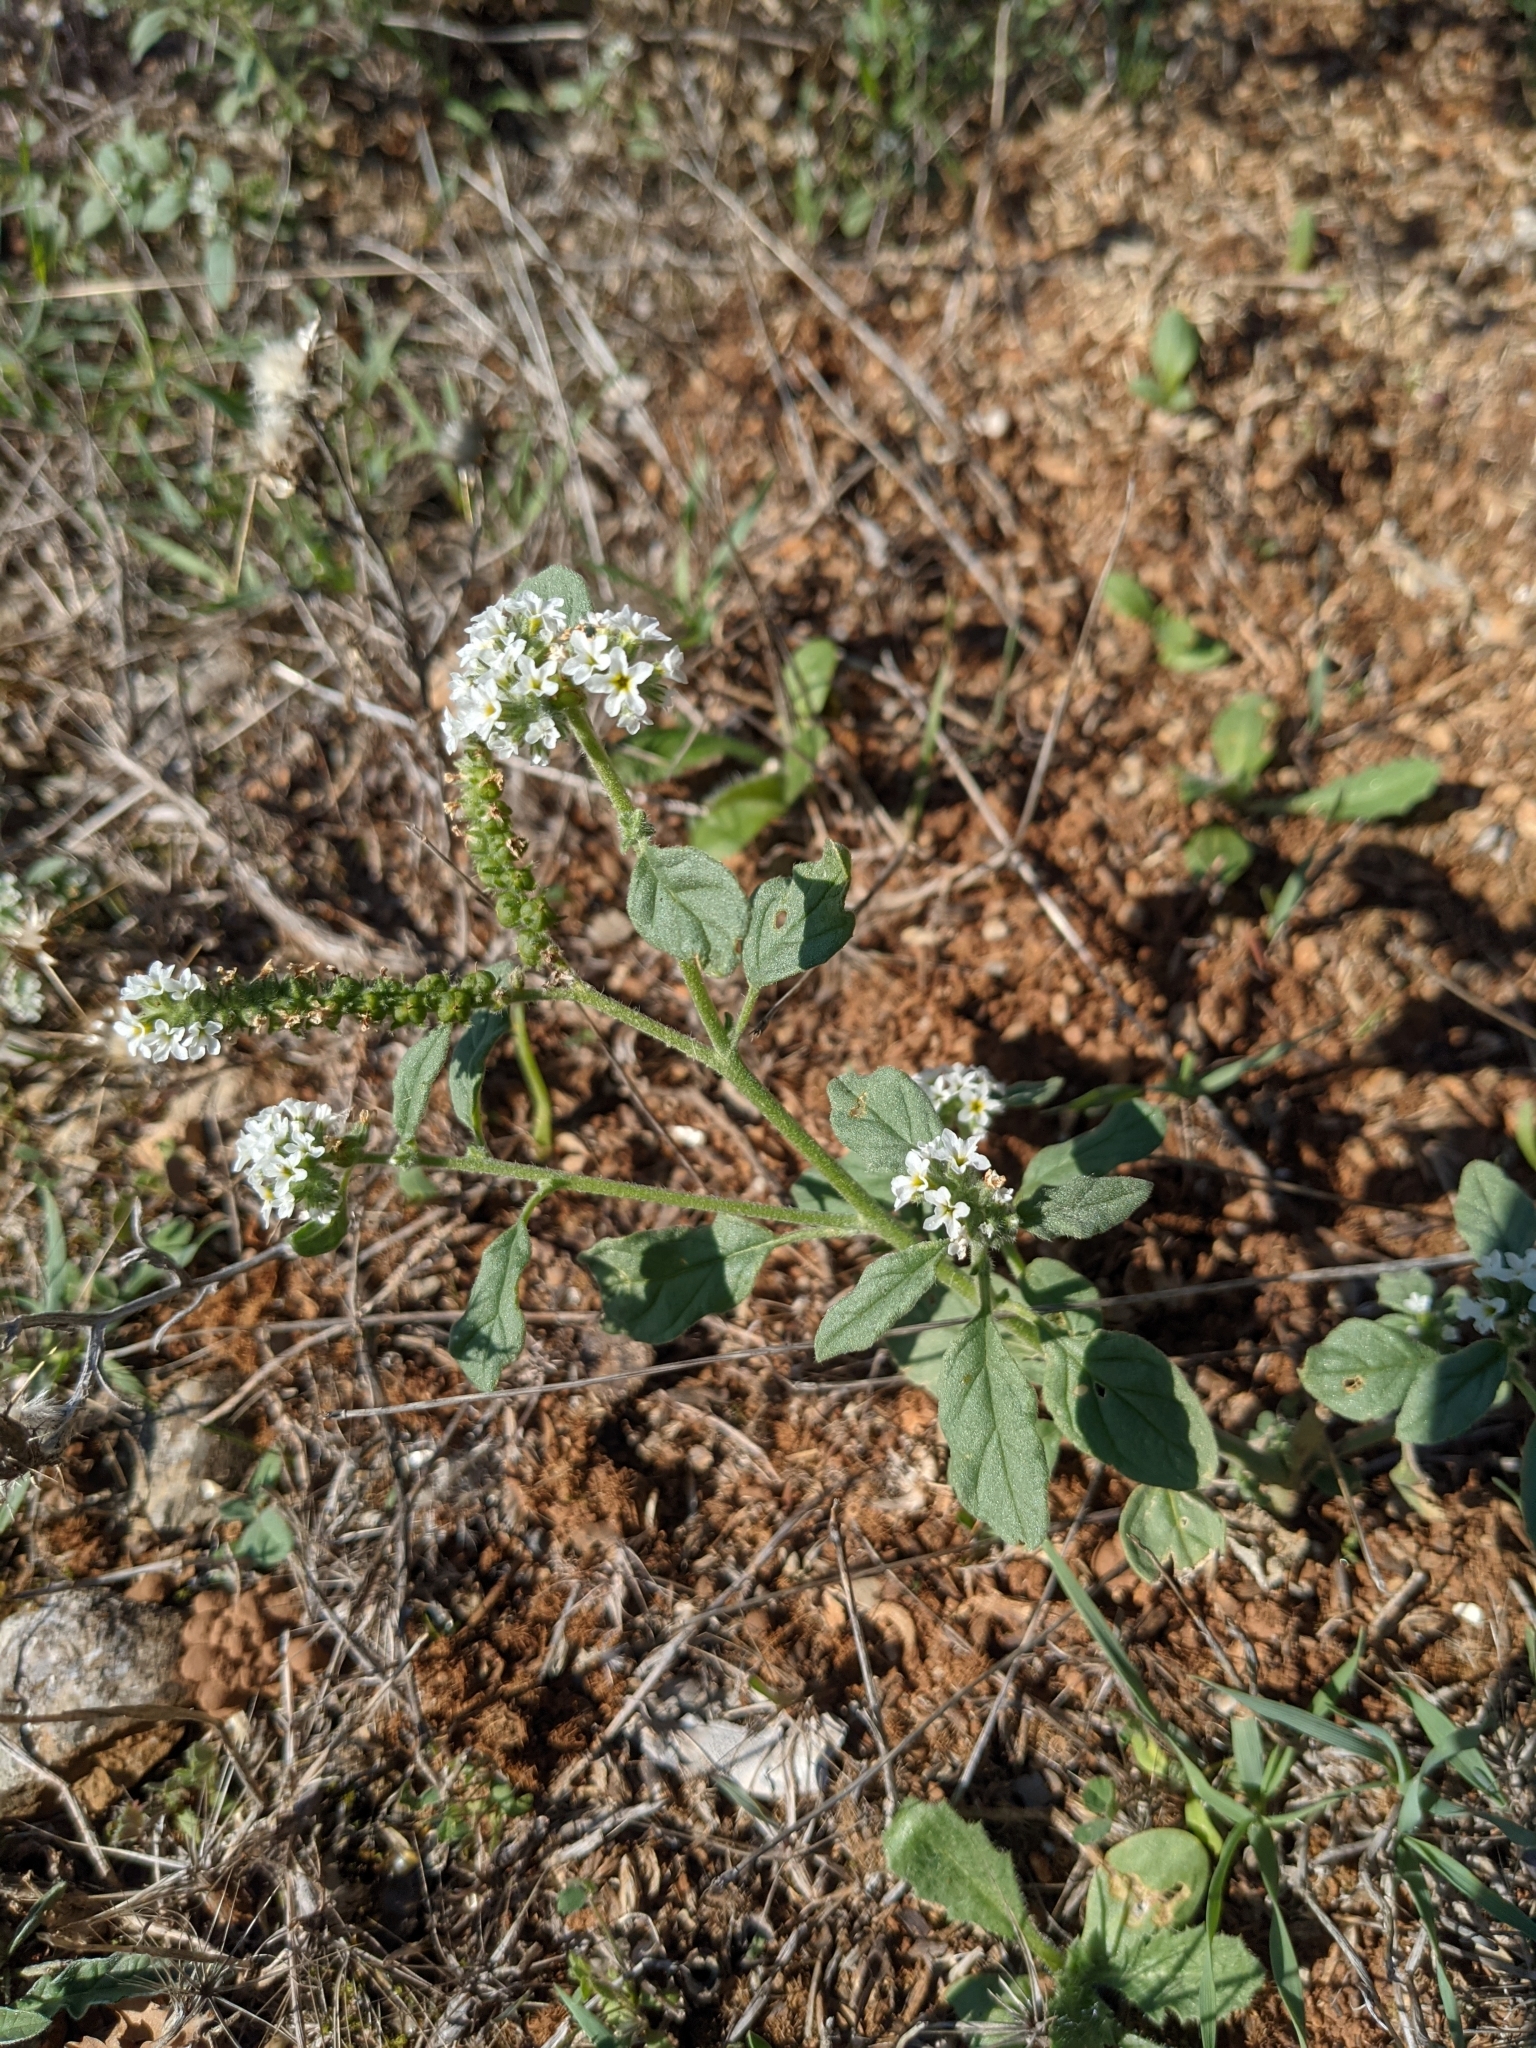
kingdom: Plantae
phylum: Tracheophyta
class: Magnoliopsida
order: Boraginales
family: Heliotropiaceae
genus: Heliotropium
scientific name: Heliotropium europaeum
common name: European heliotrope
